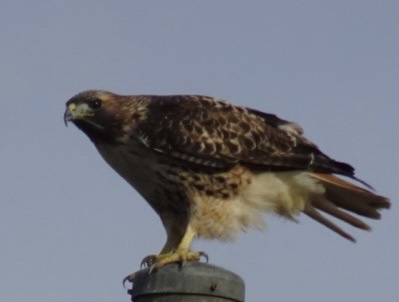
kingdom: Animalia
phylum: Chordata
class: Aves
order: Accipitriformes
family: Accipitridae
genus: Buteo
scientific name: Buteo jamaicensis
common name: Red-tailed hawk
